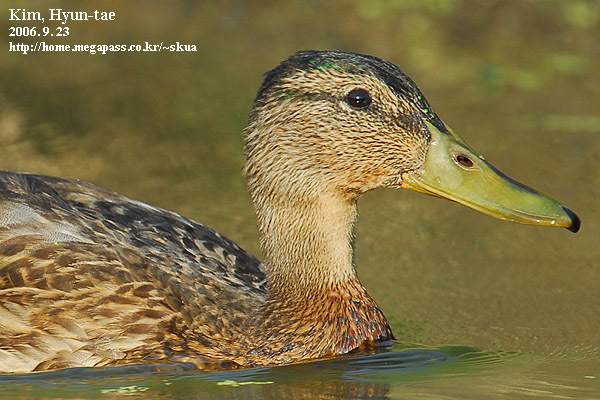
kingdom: Animalia
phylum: Chordata
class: Aves
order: Anseriformes
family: Anatidae
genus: Anas
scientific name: Anas platyrhynchos
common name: Mallard
